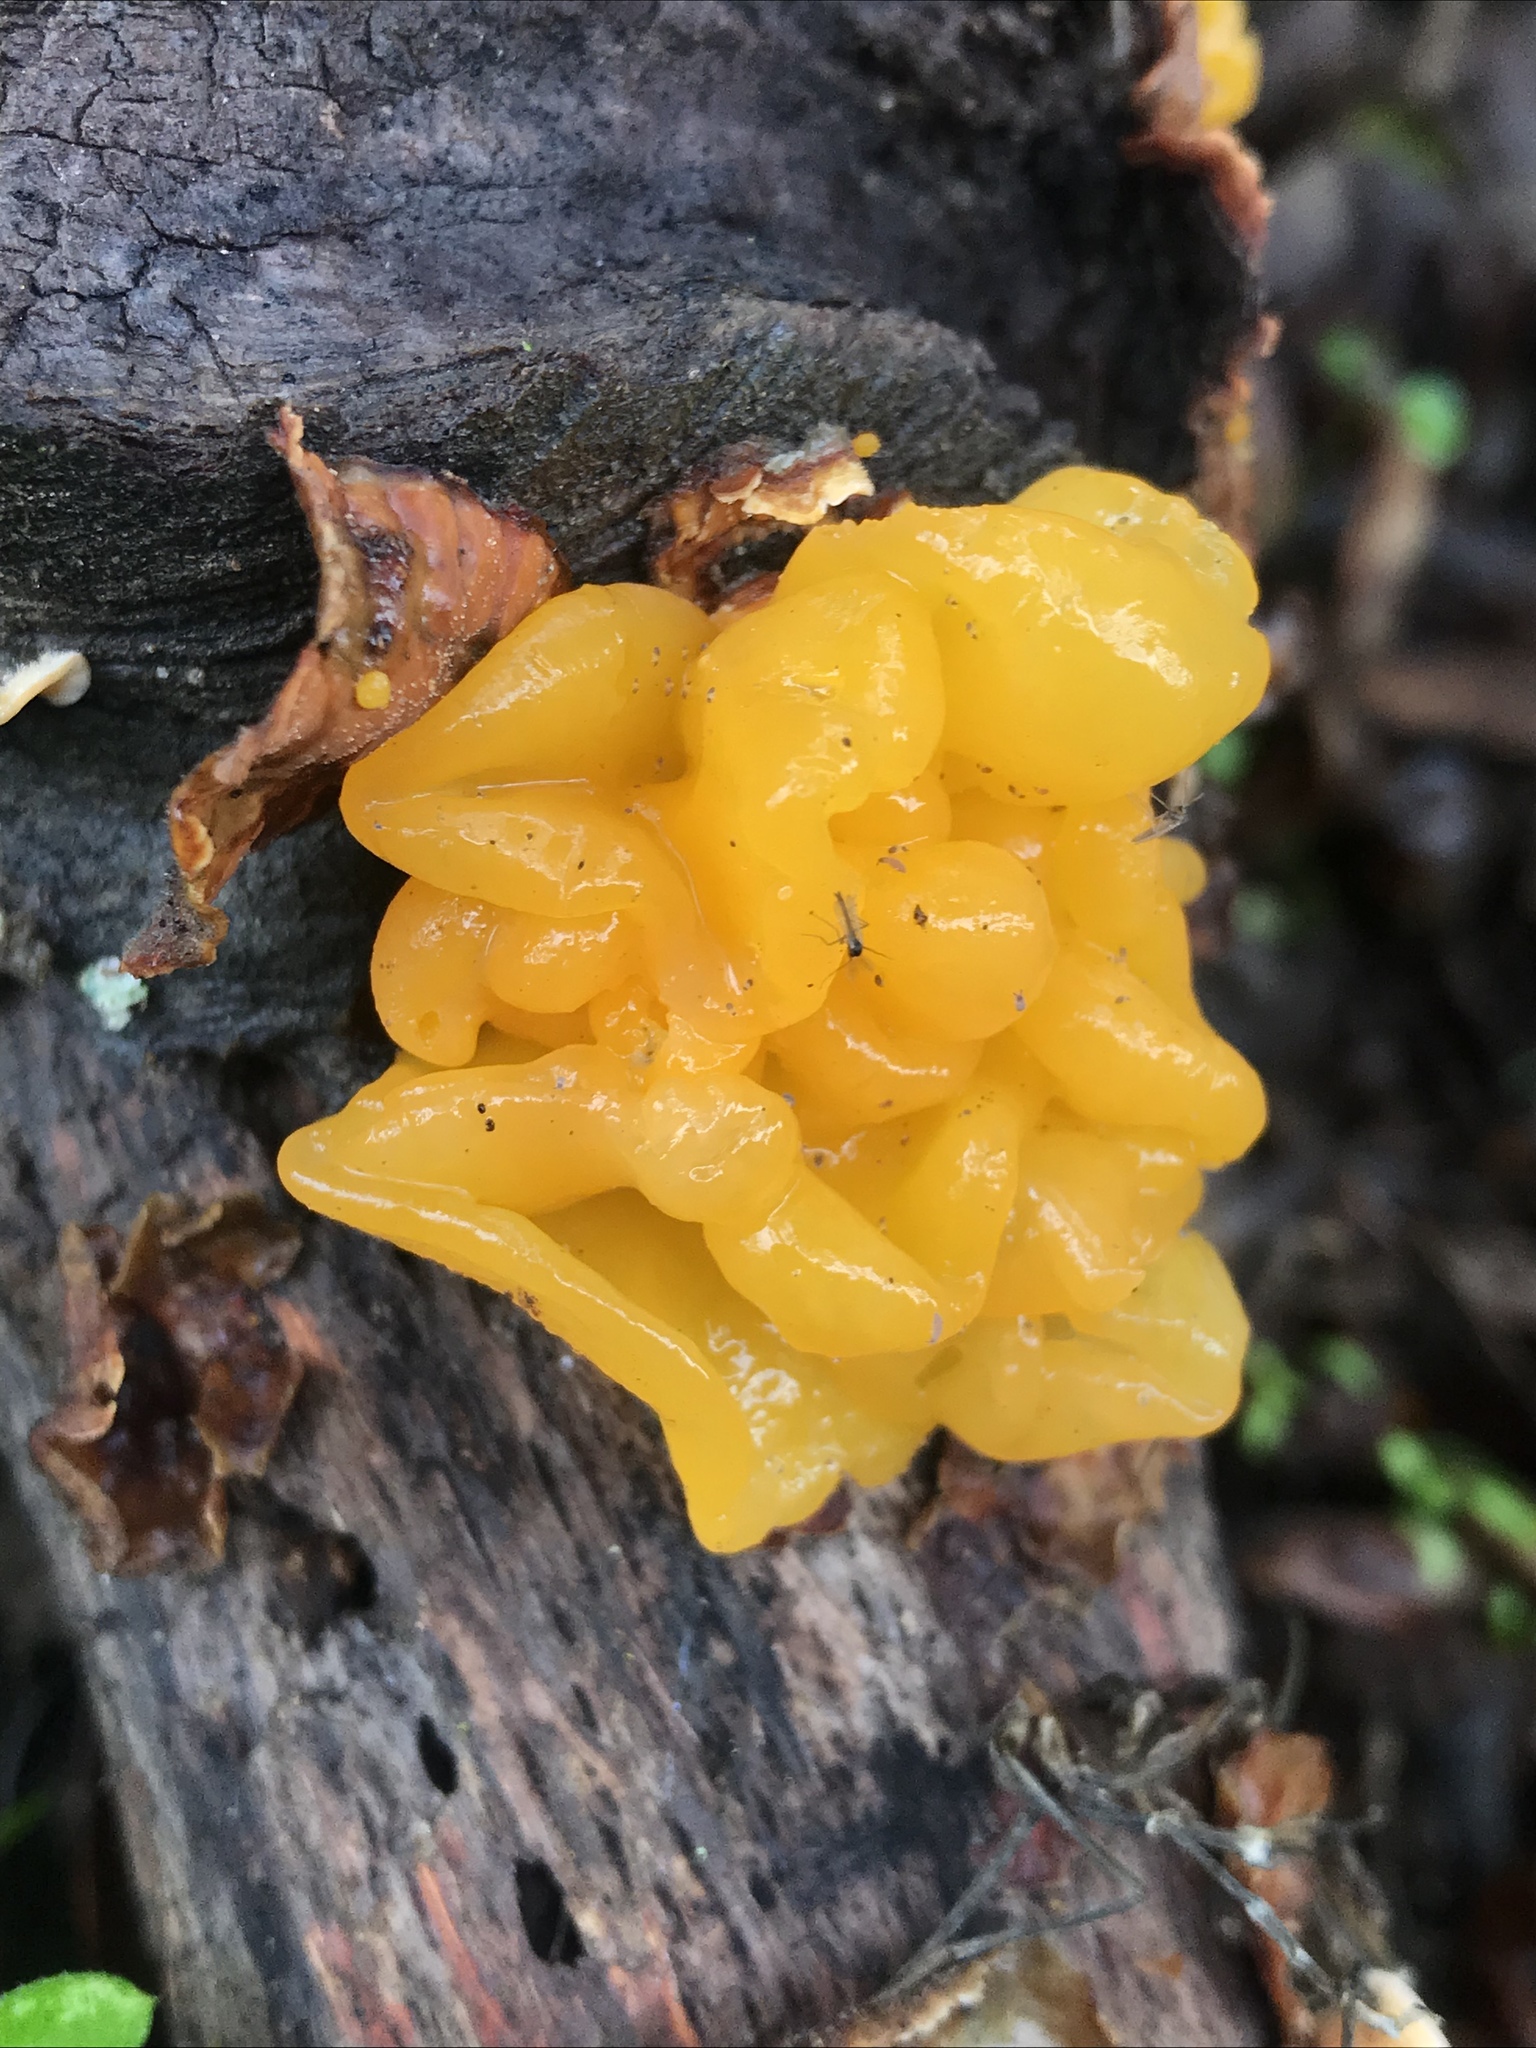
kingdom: Fungi
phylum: Basidiomycota
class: Tremellomycetes
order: Tremellales
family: Naemateliaceae
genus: Naematelia
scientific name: Naematelia aurantia
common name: Golden ear
